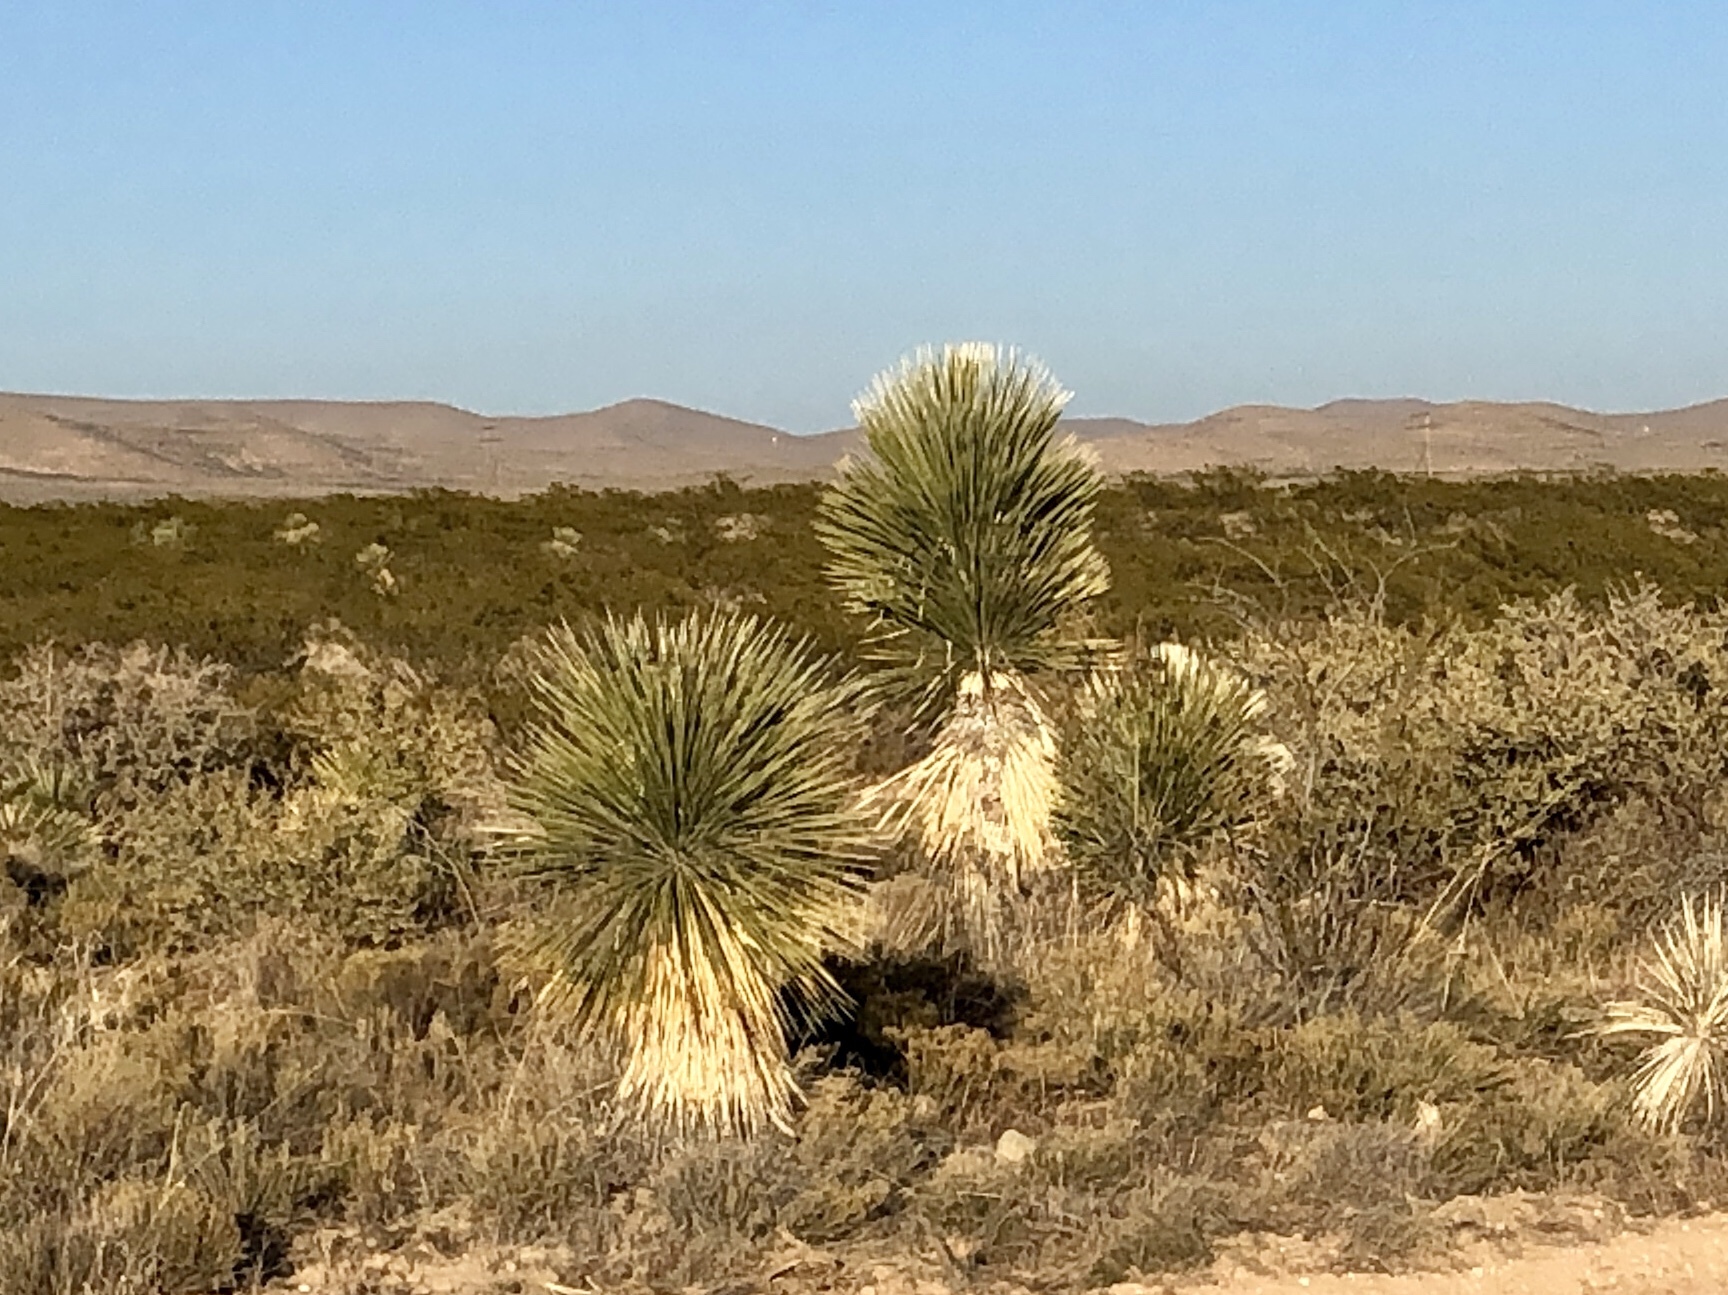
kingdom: Plantae
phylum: Tracheophyta
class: Liliopsida
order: Asparagales
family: Asparagaceae
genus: Yucca
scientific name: Yucca elata
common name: Palmella
